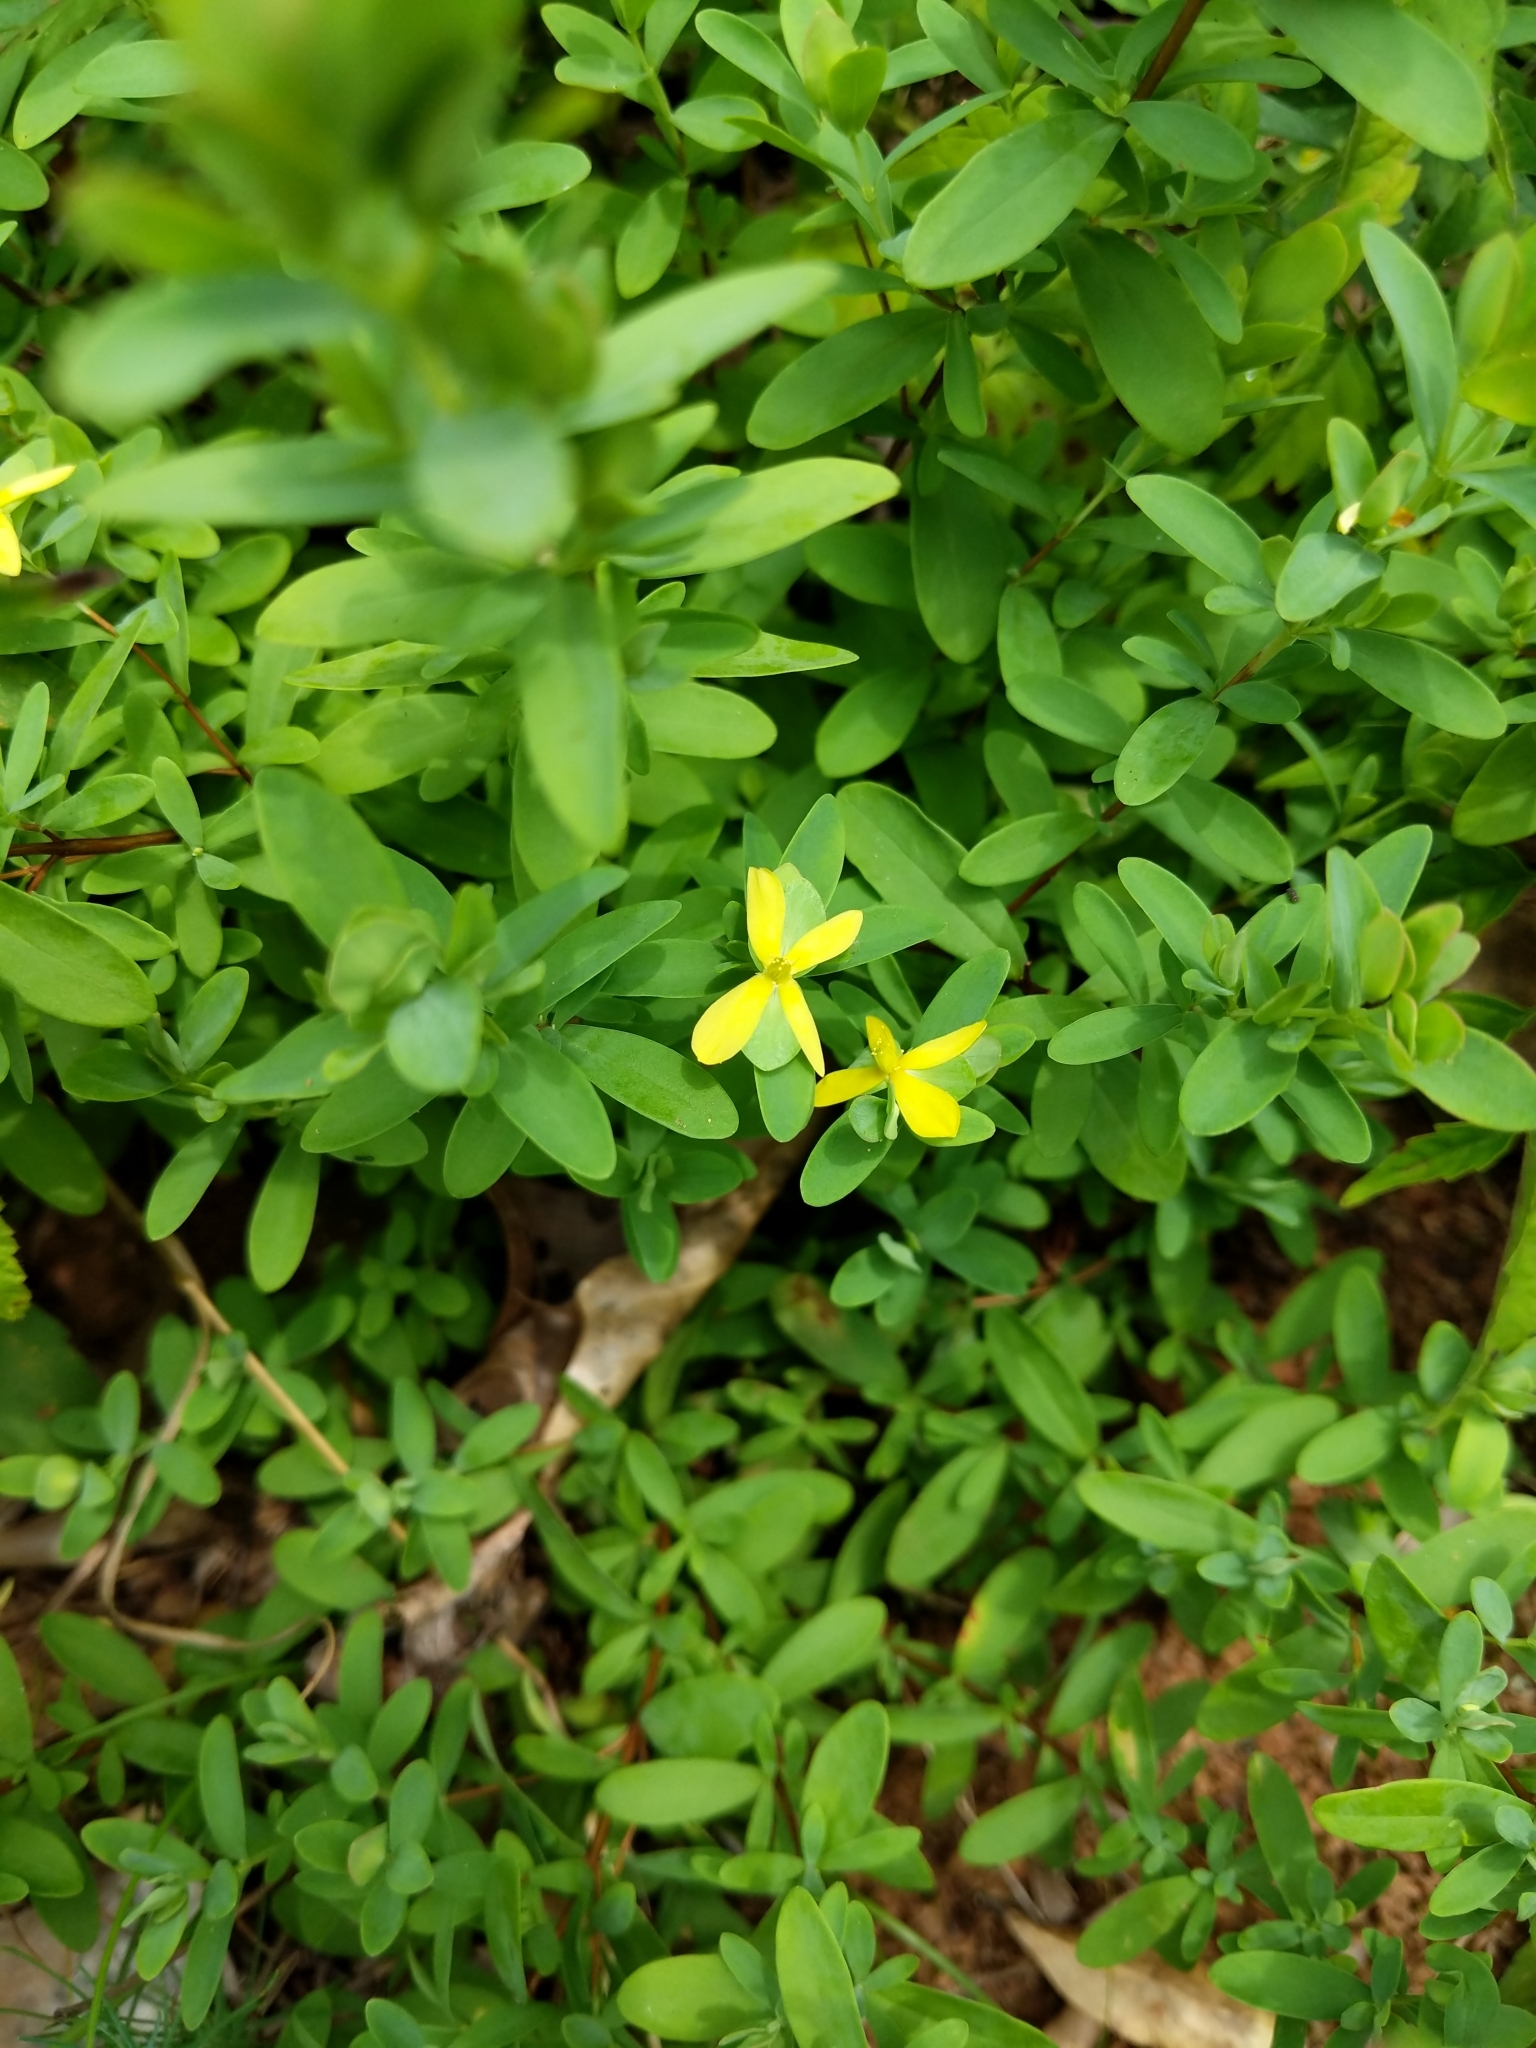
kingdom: Plantae
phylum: Tracheophyta
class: Magnoliopsida
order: Malpighiales
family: Hypericaceae
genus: Hypericum
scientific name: Hypericum hypericoides
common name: St. andrew's cross
